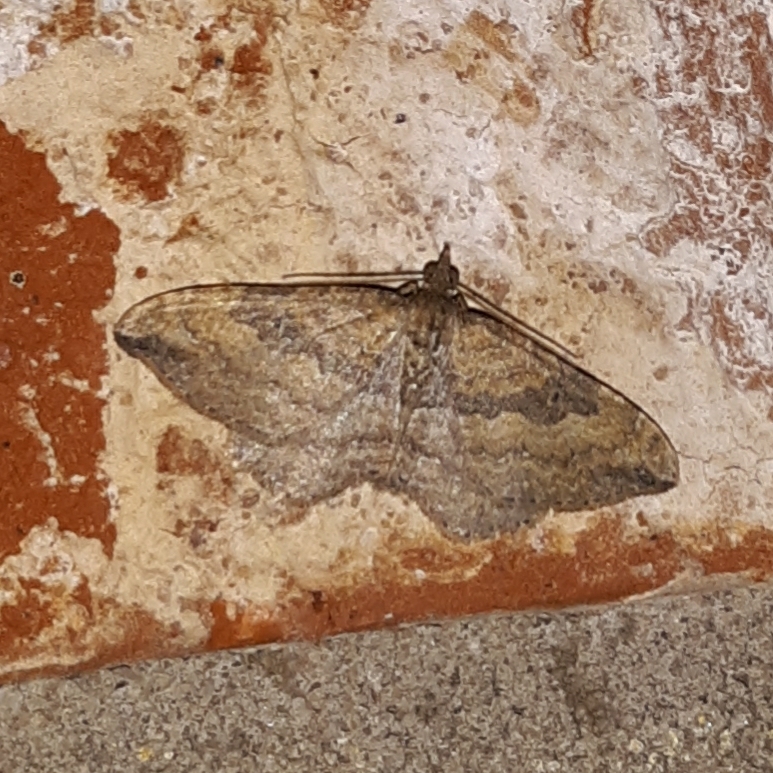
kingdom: Animalia
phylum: Arthropoda
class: Insecta
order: Lepidoptera
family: Geometridae
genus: Orthonama
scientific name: Orthonama obstipata
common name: The gem
